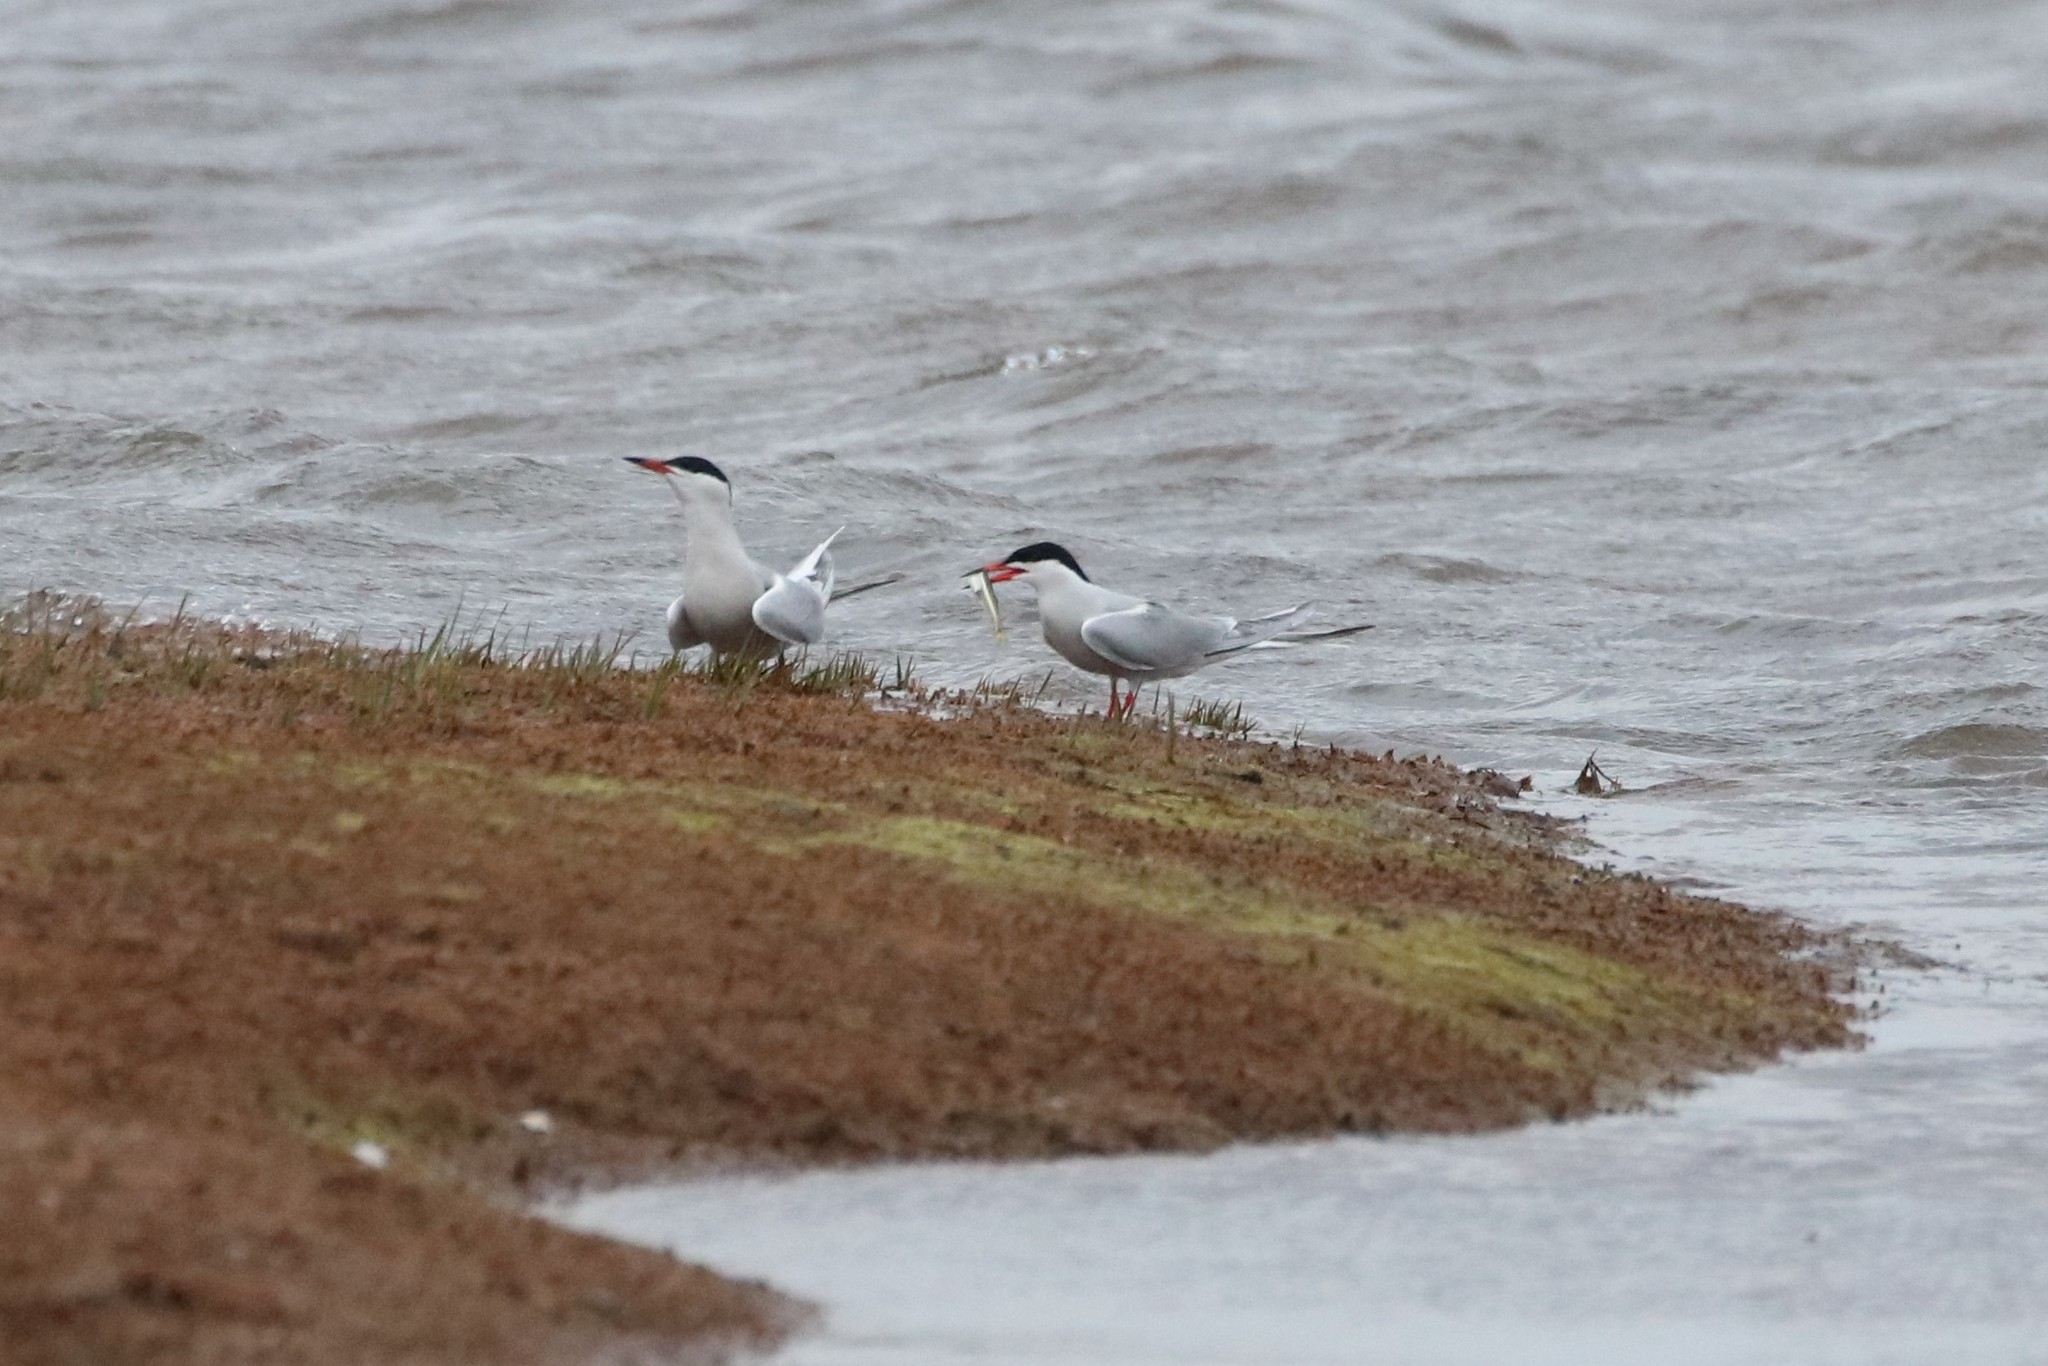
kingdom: Animalia
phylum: Chordata
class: Aves
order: Charadriiformes
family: Laridae
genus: Sterna
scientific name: Sterna hirundo
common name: Common tern
